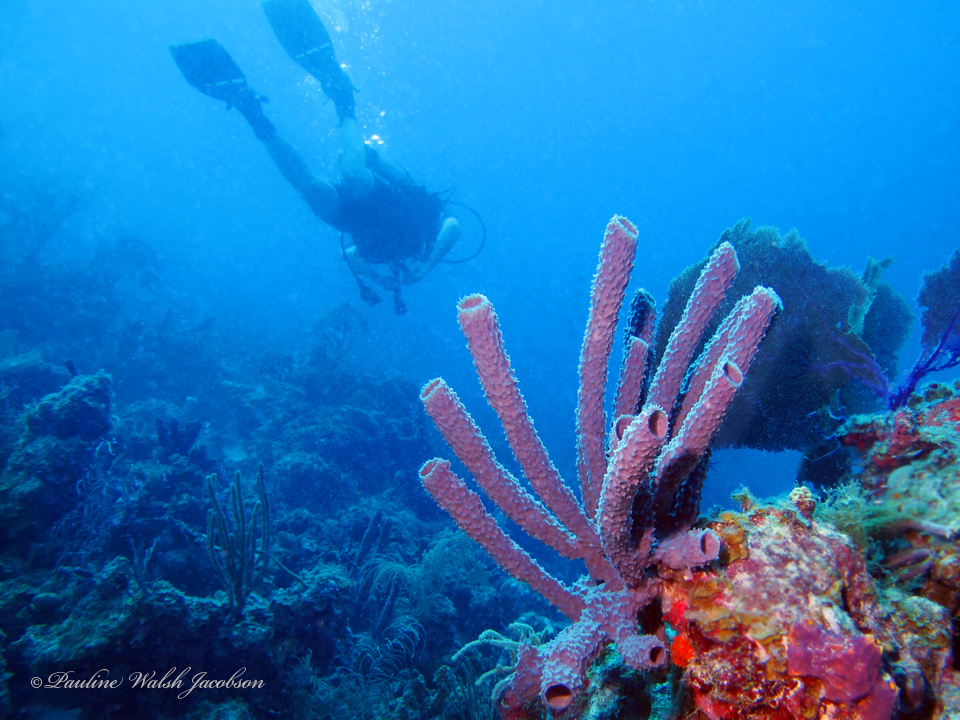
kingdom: Animalia
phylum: Porifera
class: Demospongiae
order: Haplosclerida
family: Callyspongiidae
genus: Callyspongia
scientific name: Callyspongia aculeata
